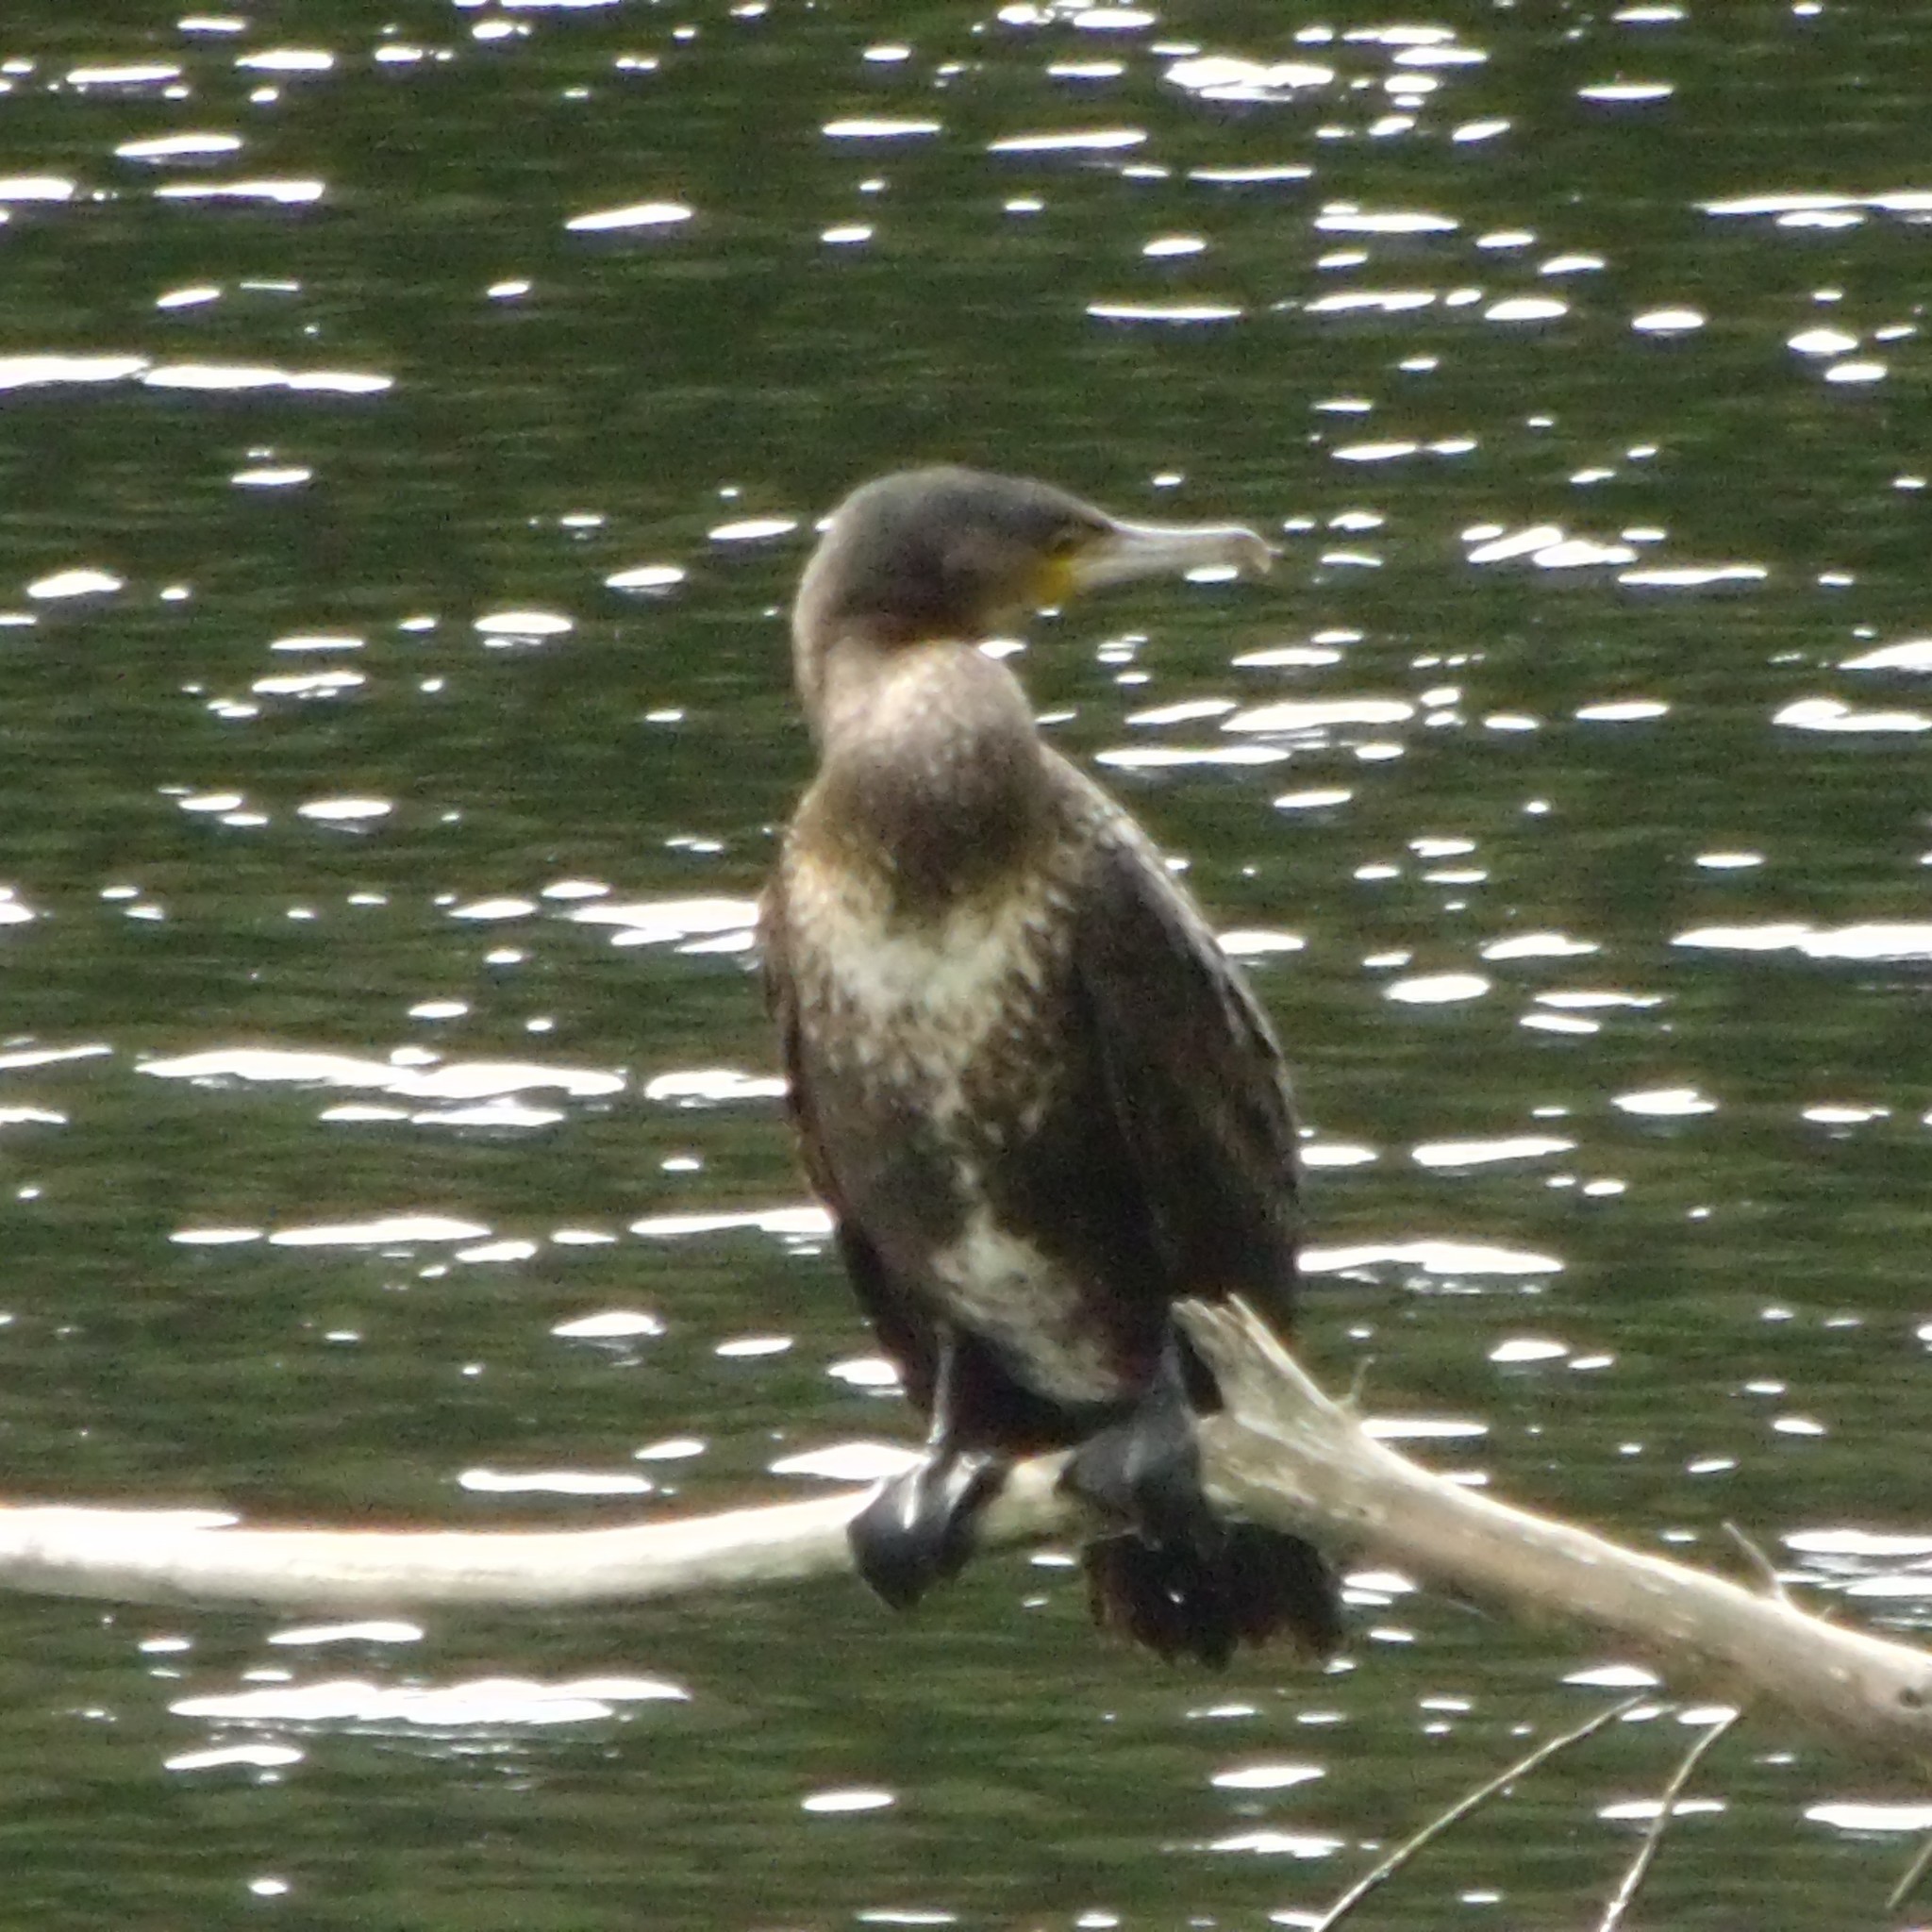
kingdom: Animalia
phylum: Chordata
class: Aves
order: Suliformes
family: Phalacrocoracidae
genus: Phalacrocorax
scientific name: Phalacrocorax carbo
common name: Great cormorant
